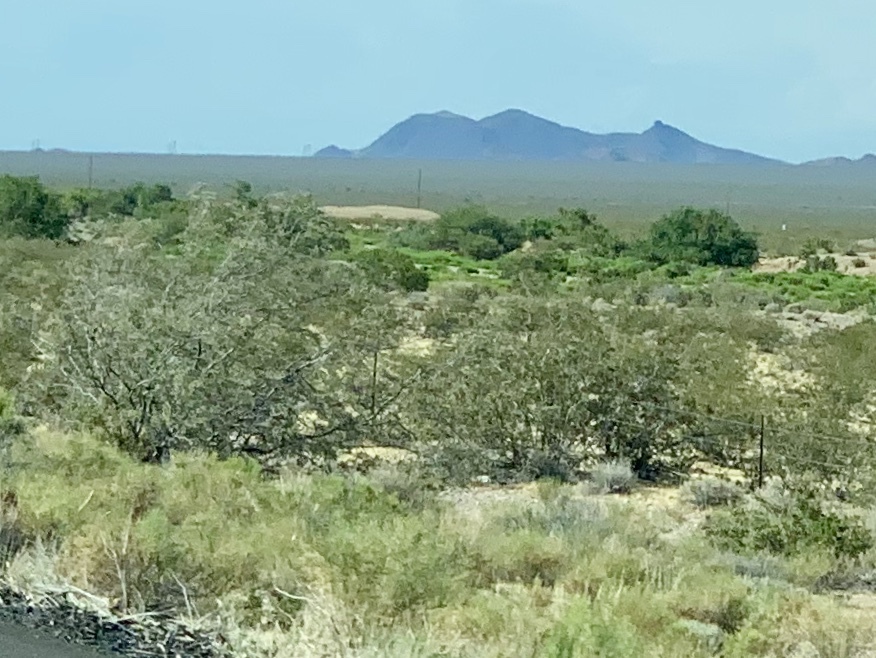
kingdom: Plantae
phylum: Tracheophyta
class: Magnoliopsida
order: Zygophyllales
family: Zygophyllaceae
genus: Larrea
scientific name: Larrea tridentata
